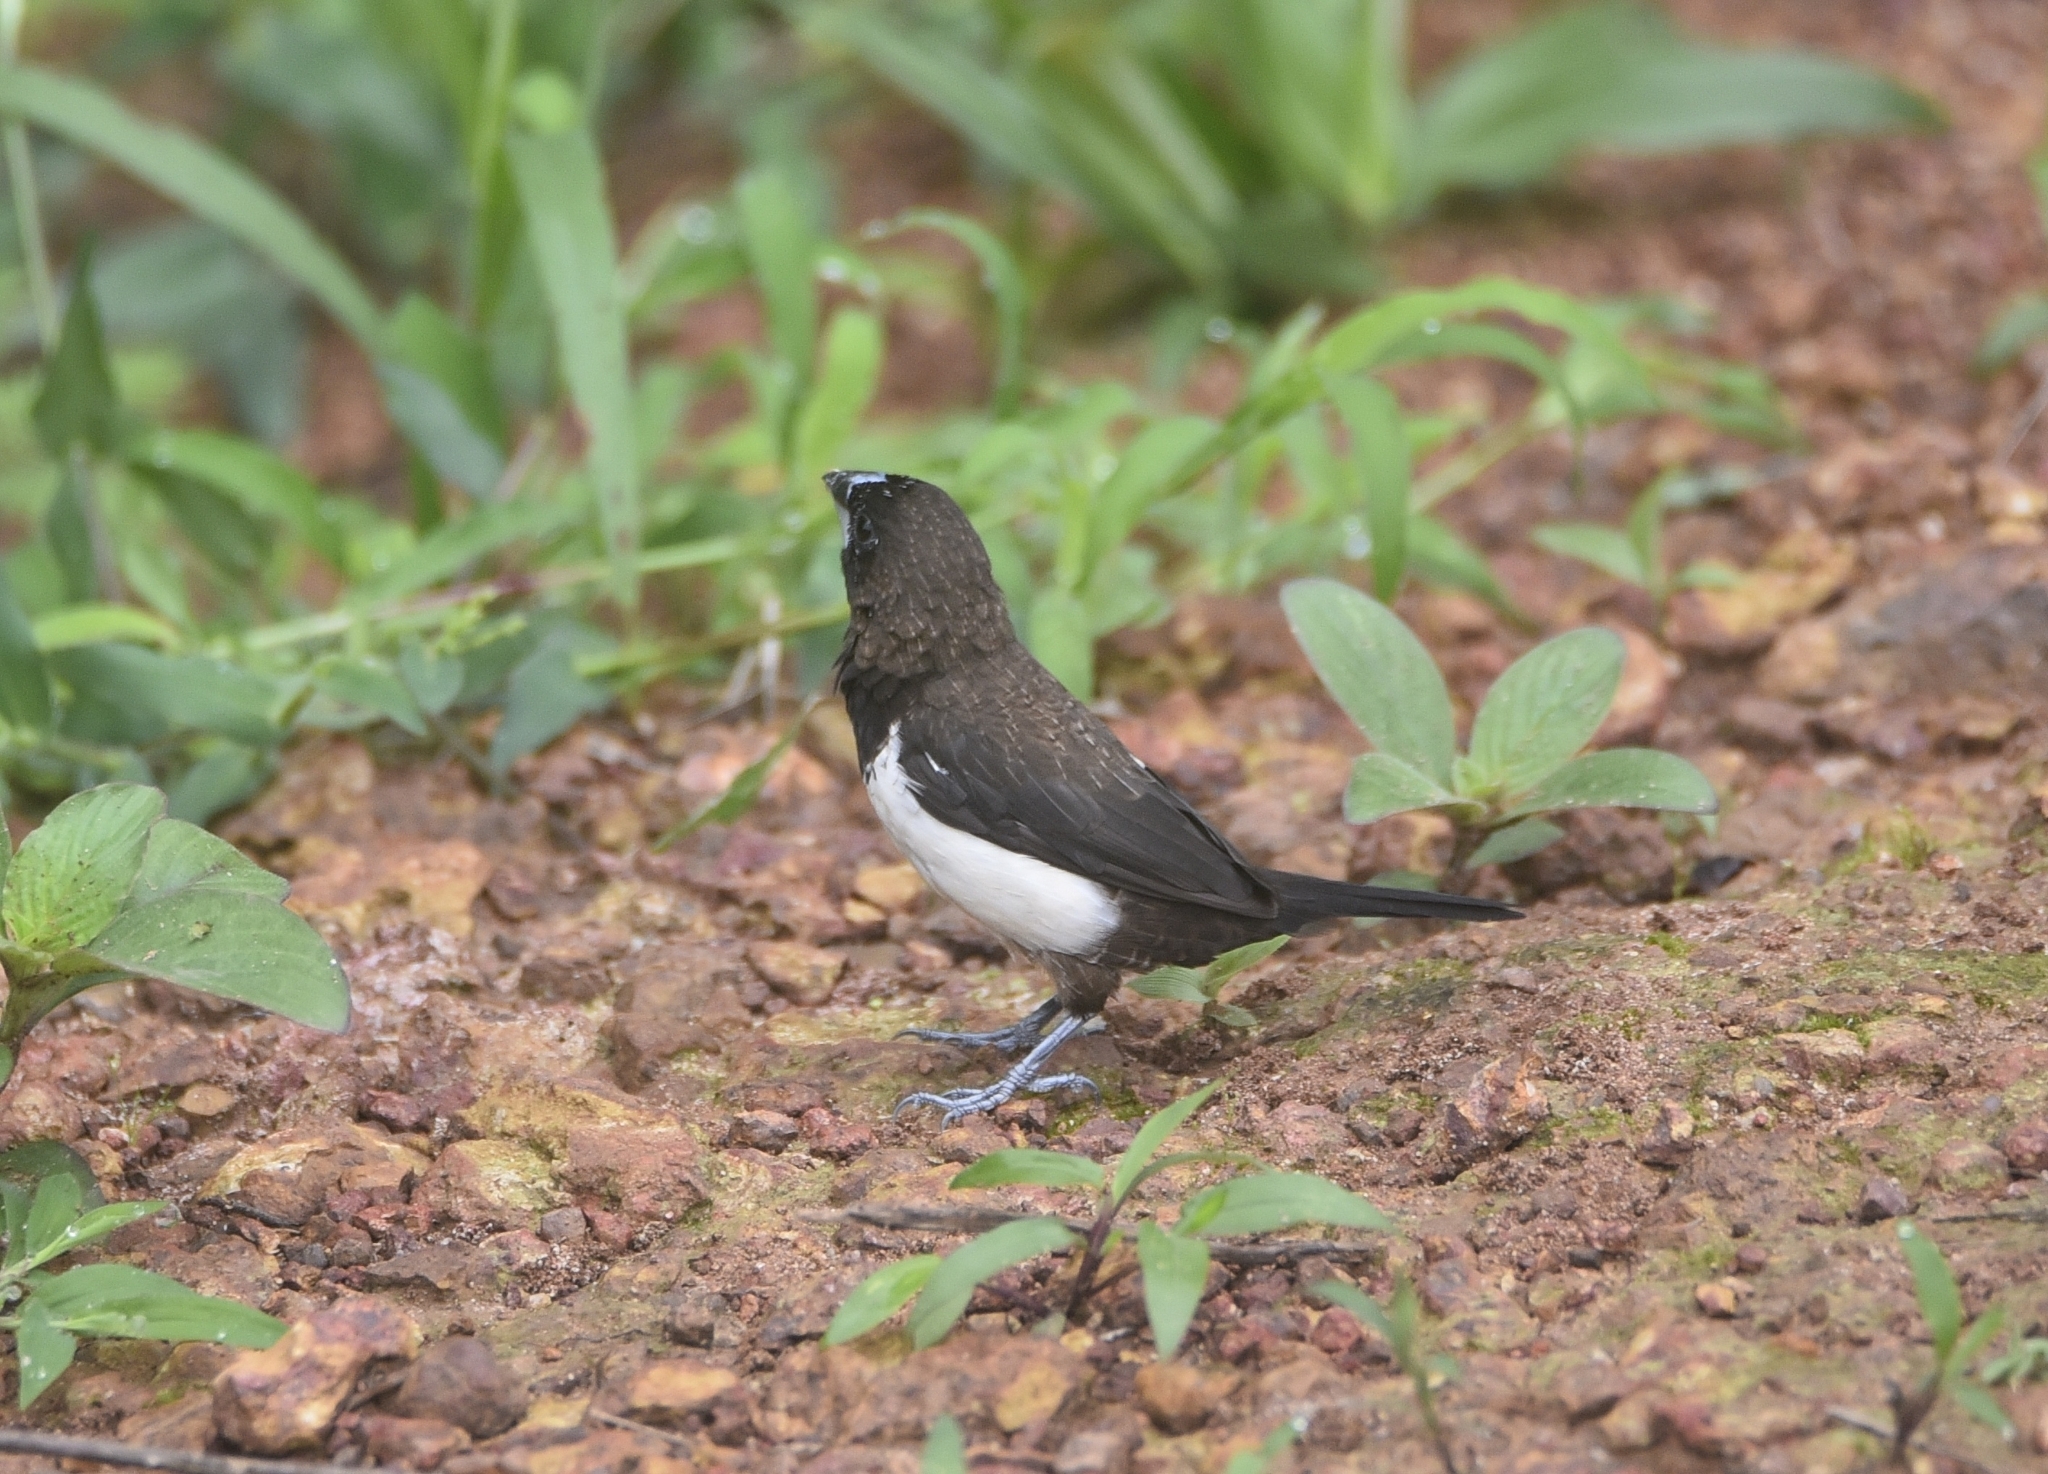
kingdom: Animalia
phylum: Chordata
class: Aves
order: Passeriformes
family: Estrildidae
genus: Lonchura
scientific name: Lonchura striata
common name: White-rumped munia
